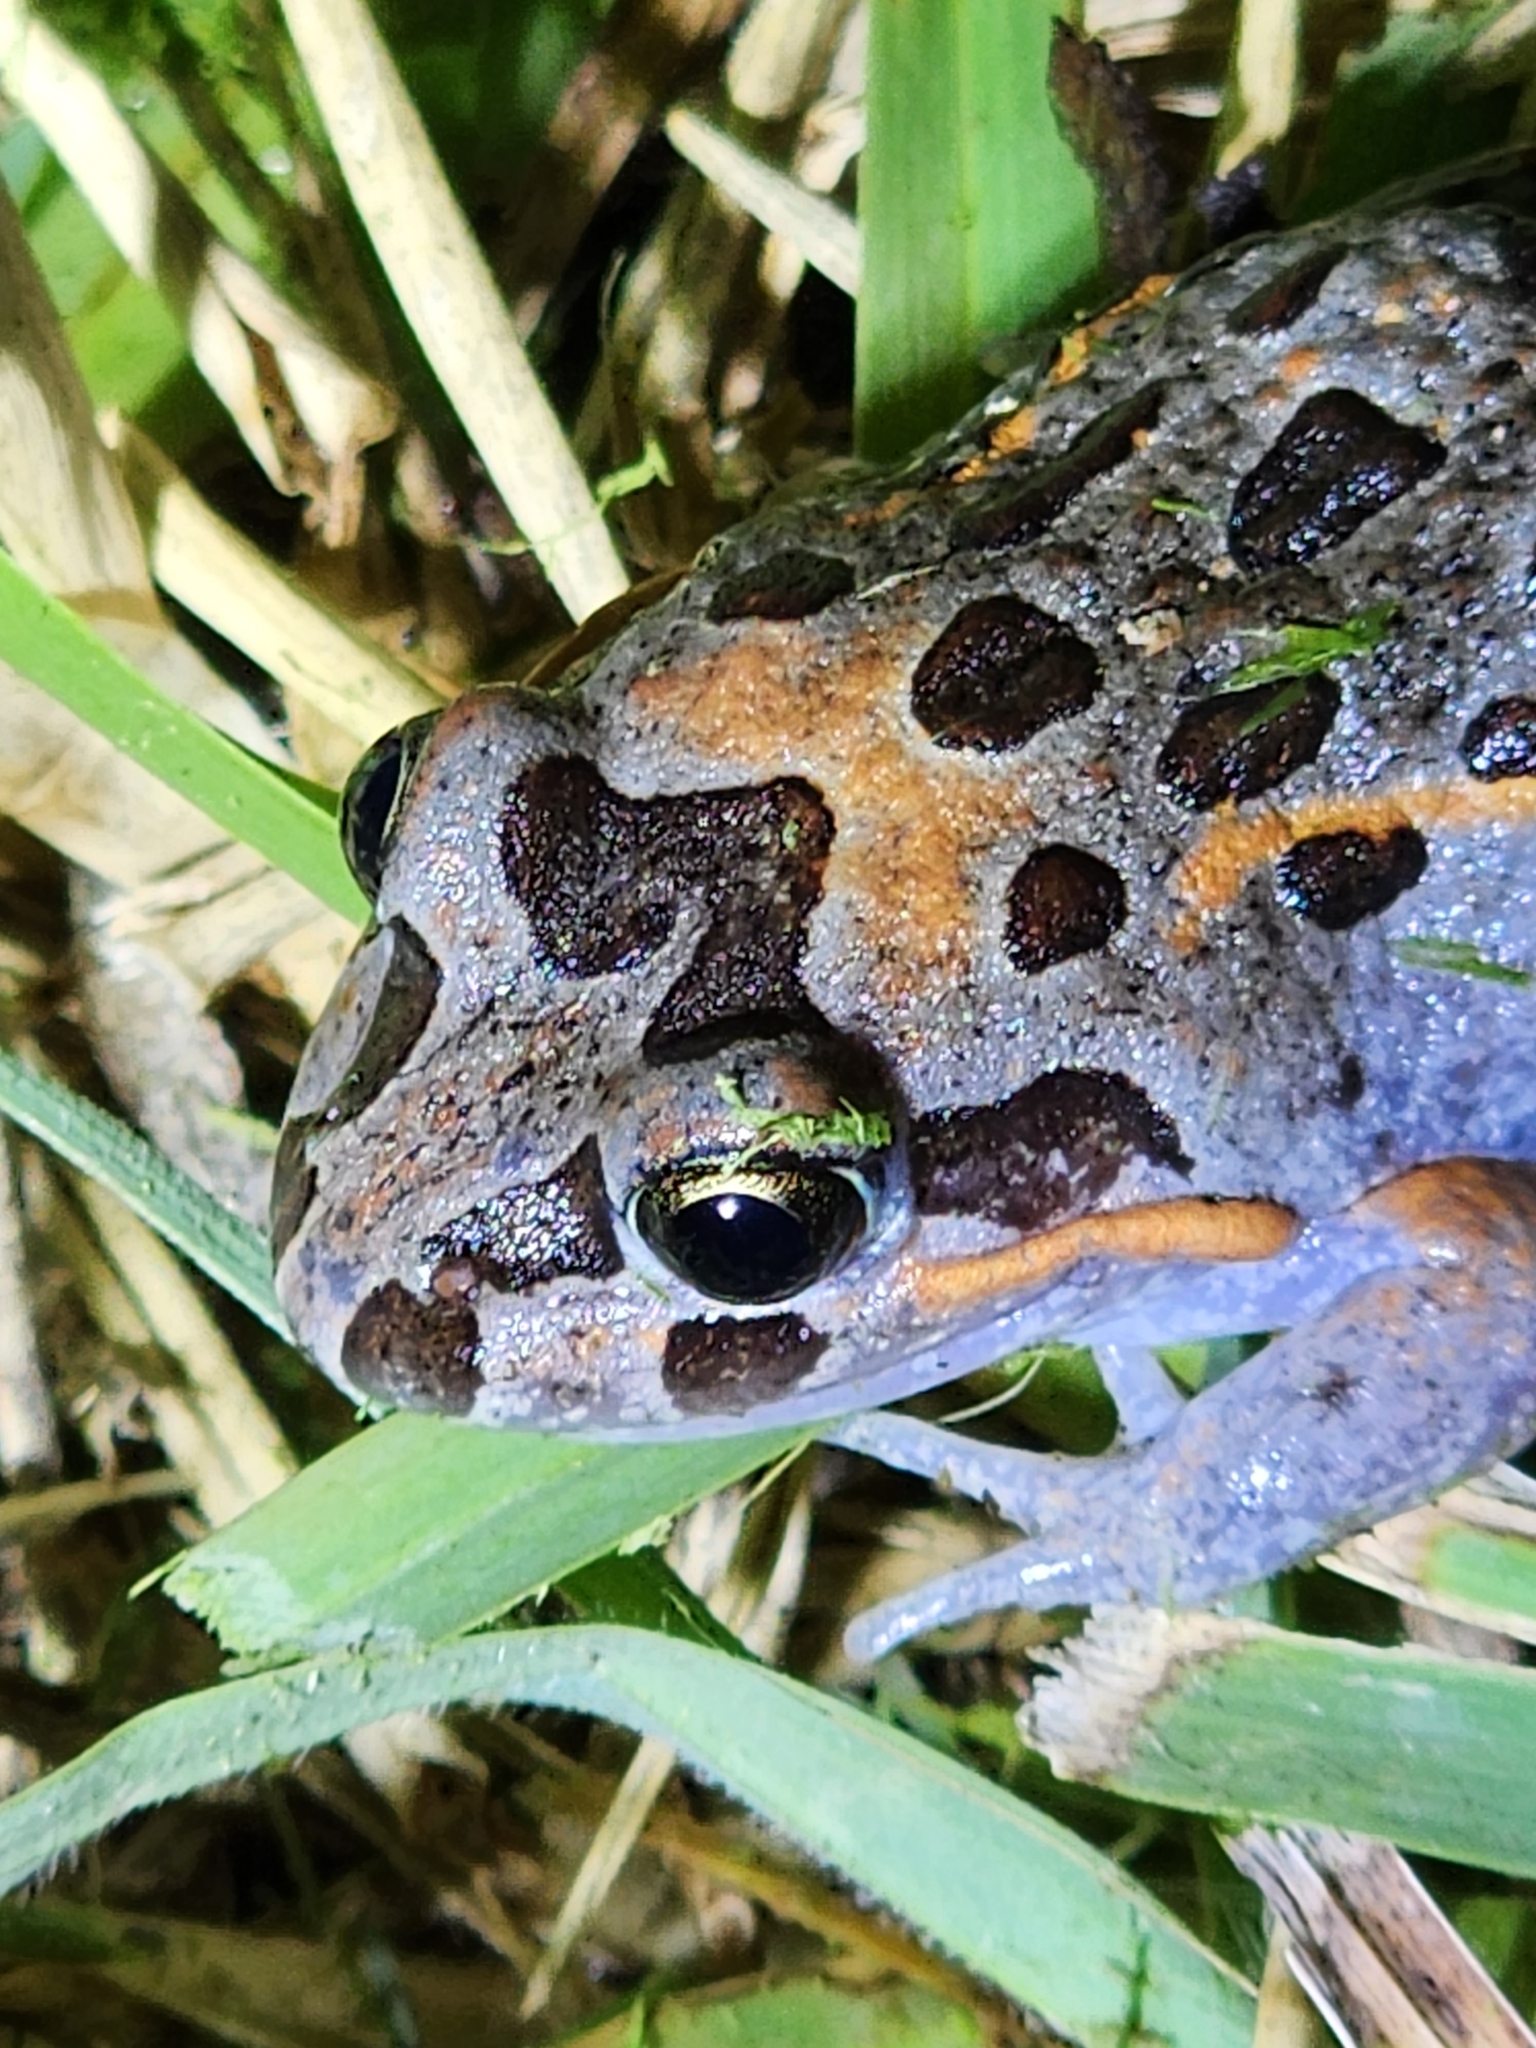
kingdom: Animalia
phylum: Chordata
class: Amphibia
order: Anura
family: Limnodynastidae
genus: Limnodynastes
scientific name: Limnodynastes salmini
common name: Salmon-striped frog
